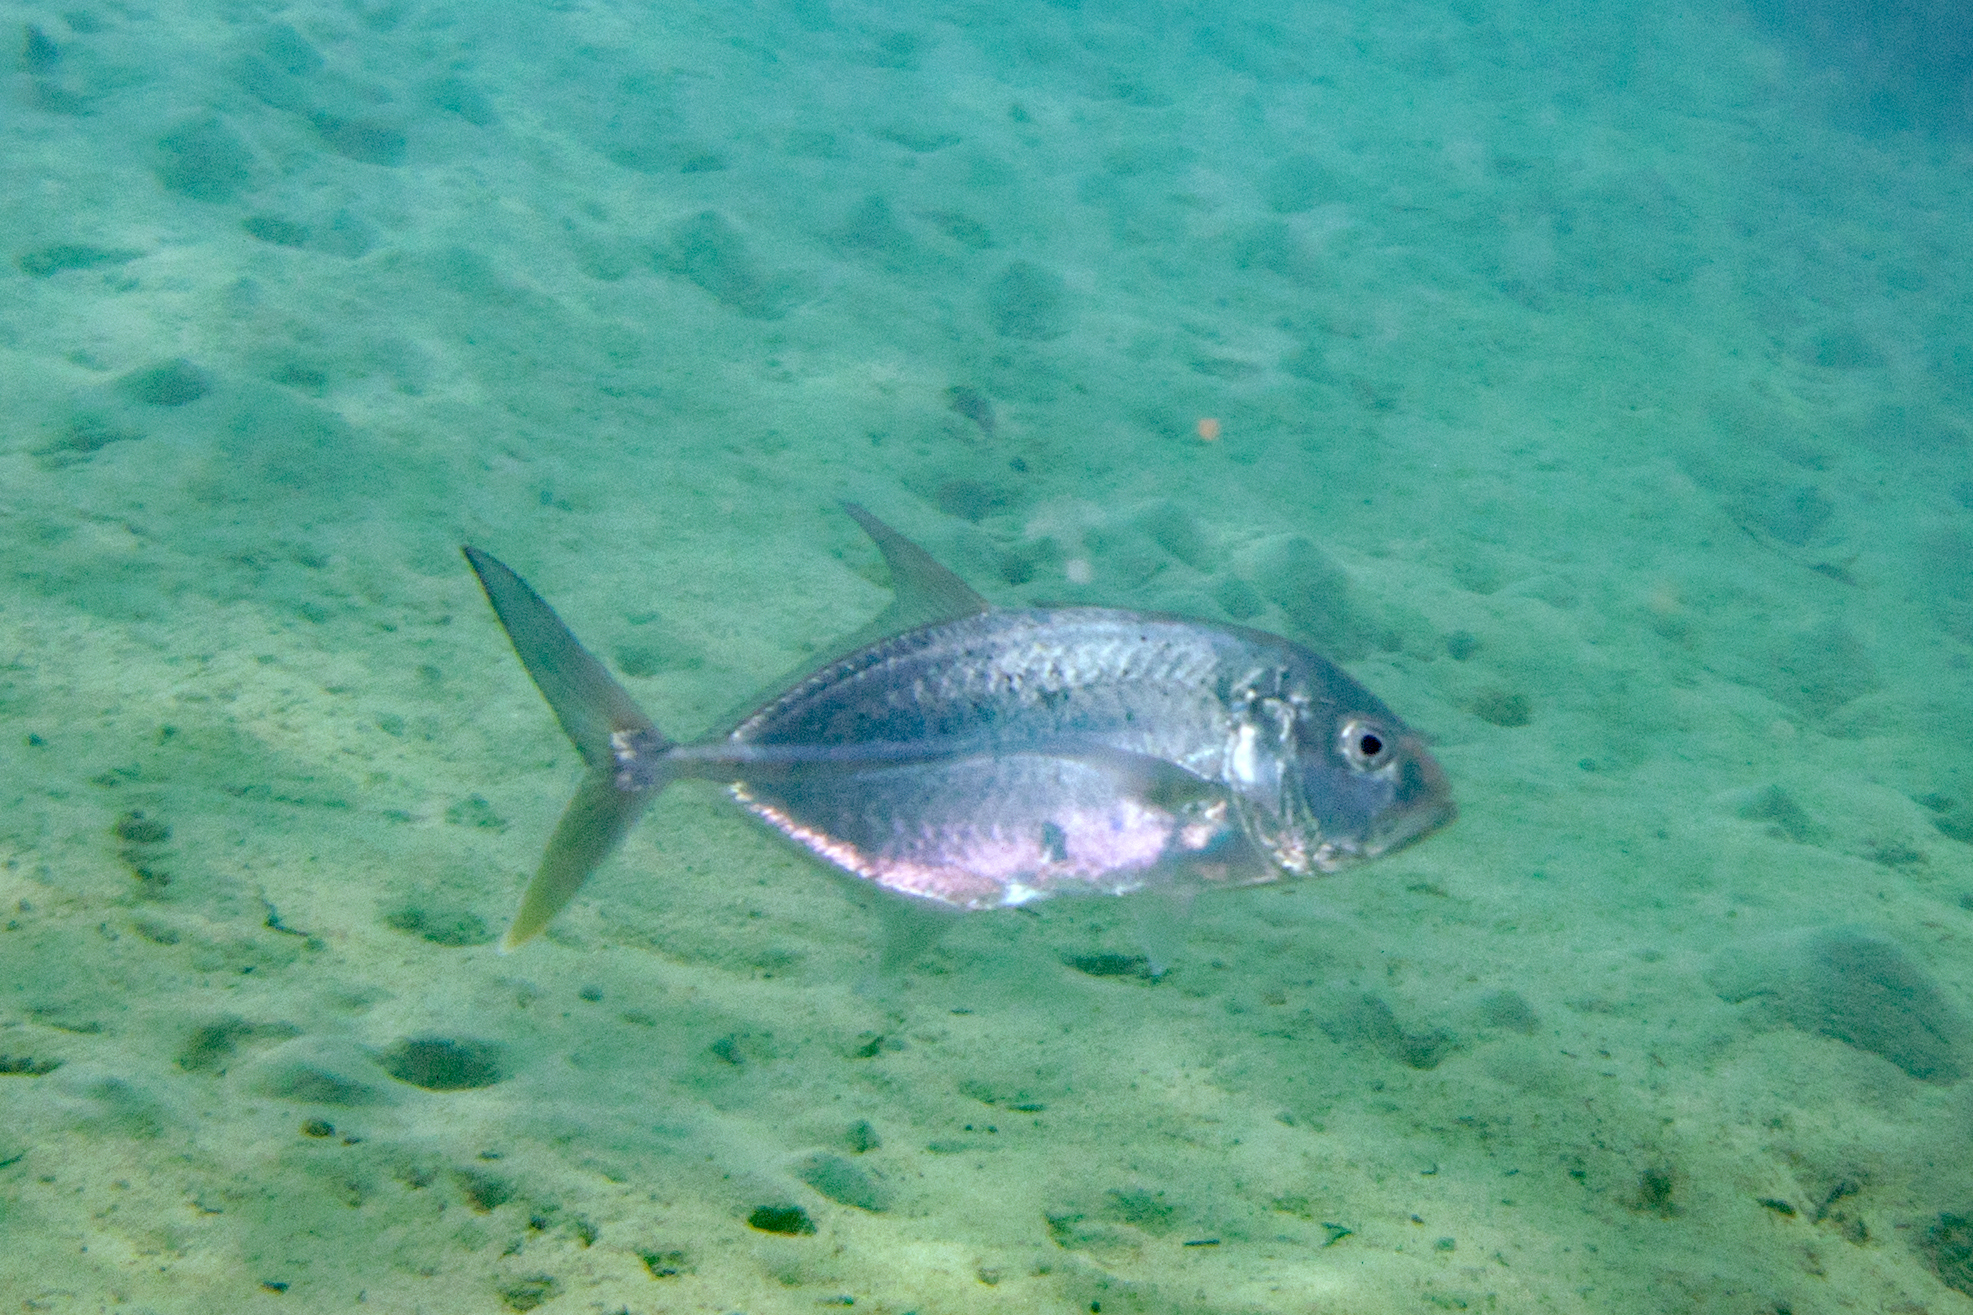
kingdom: Animalia
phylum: Chordata
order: Perciformes
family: Carangidae
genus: Caranx
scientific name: Caranx papuensis
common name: Brassy trevally
